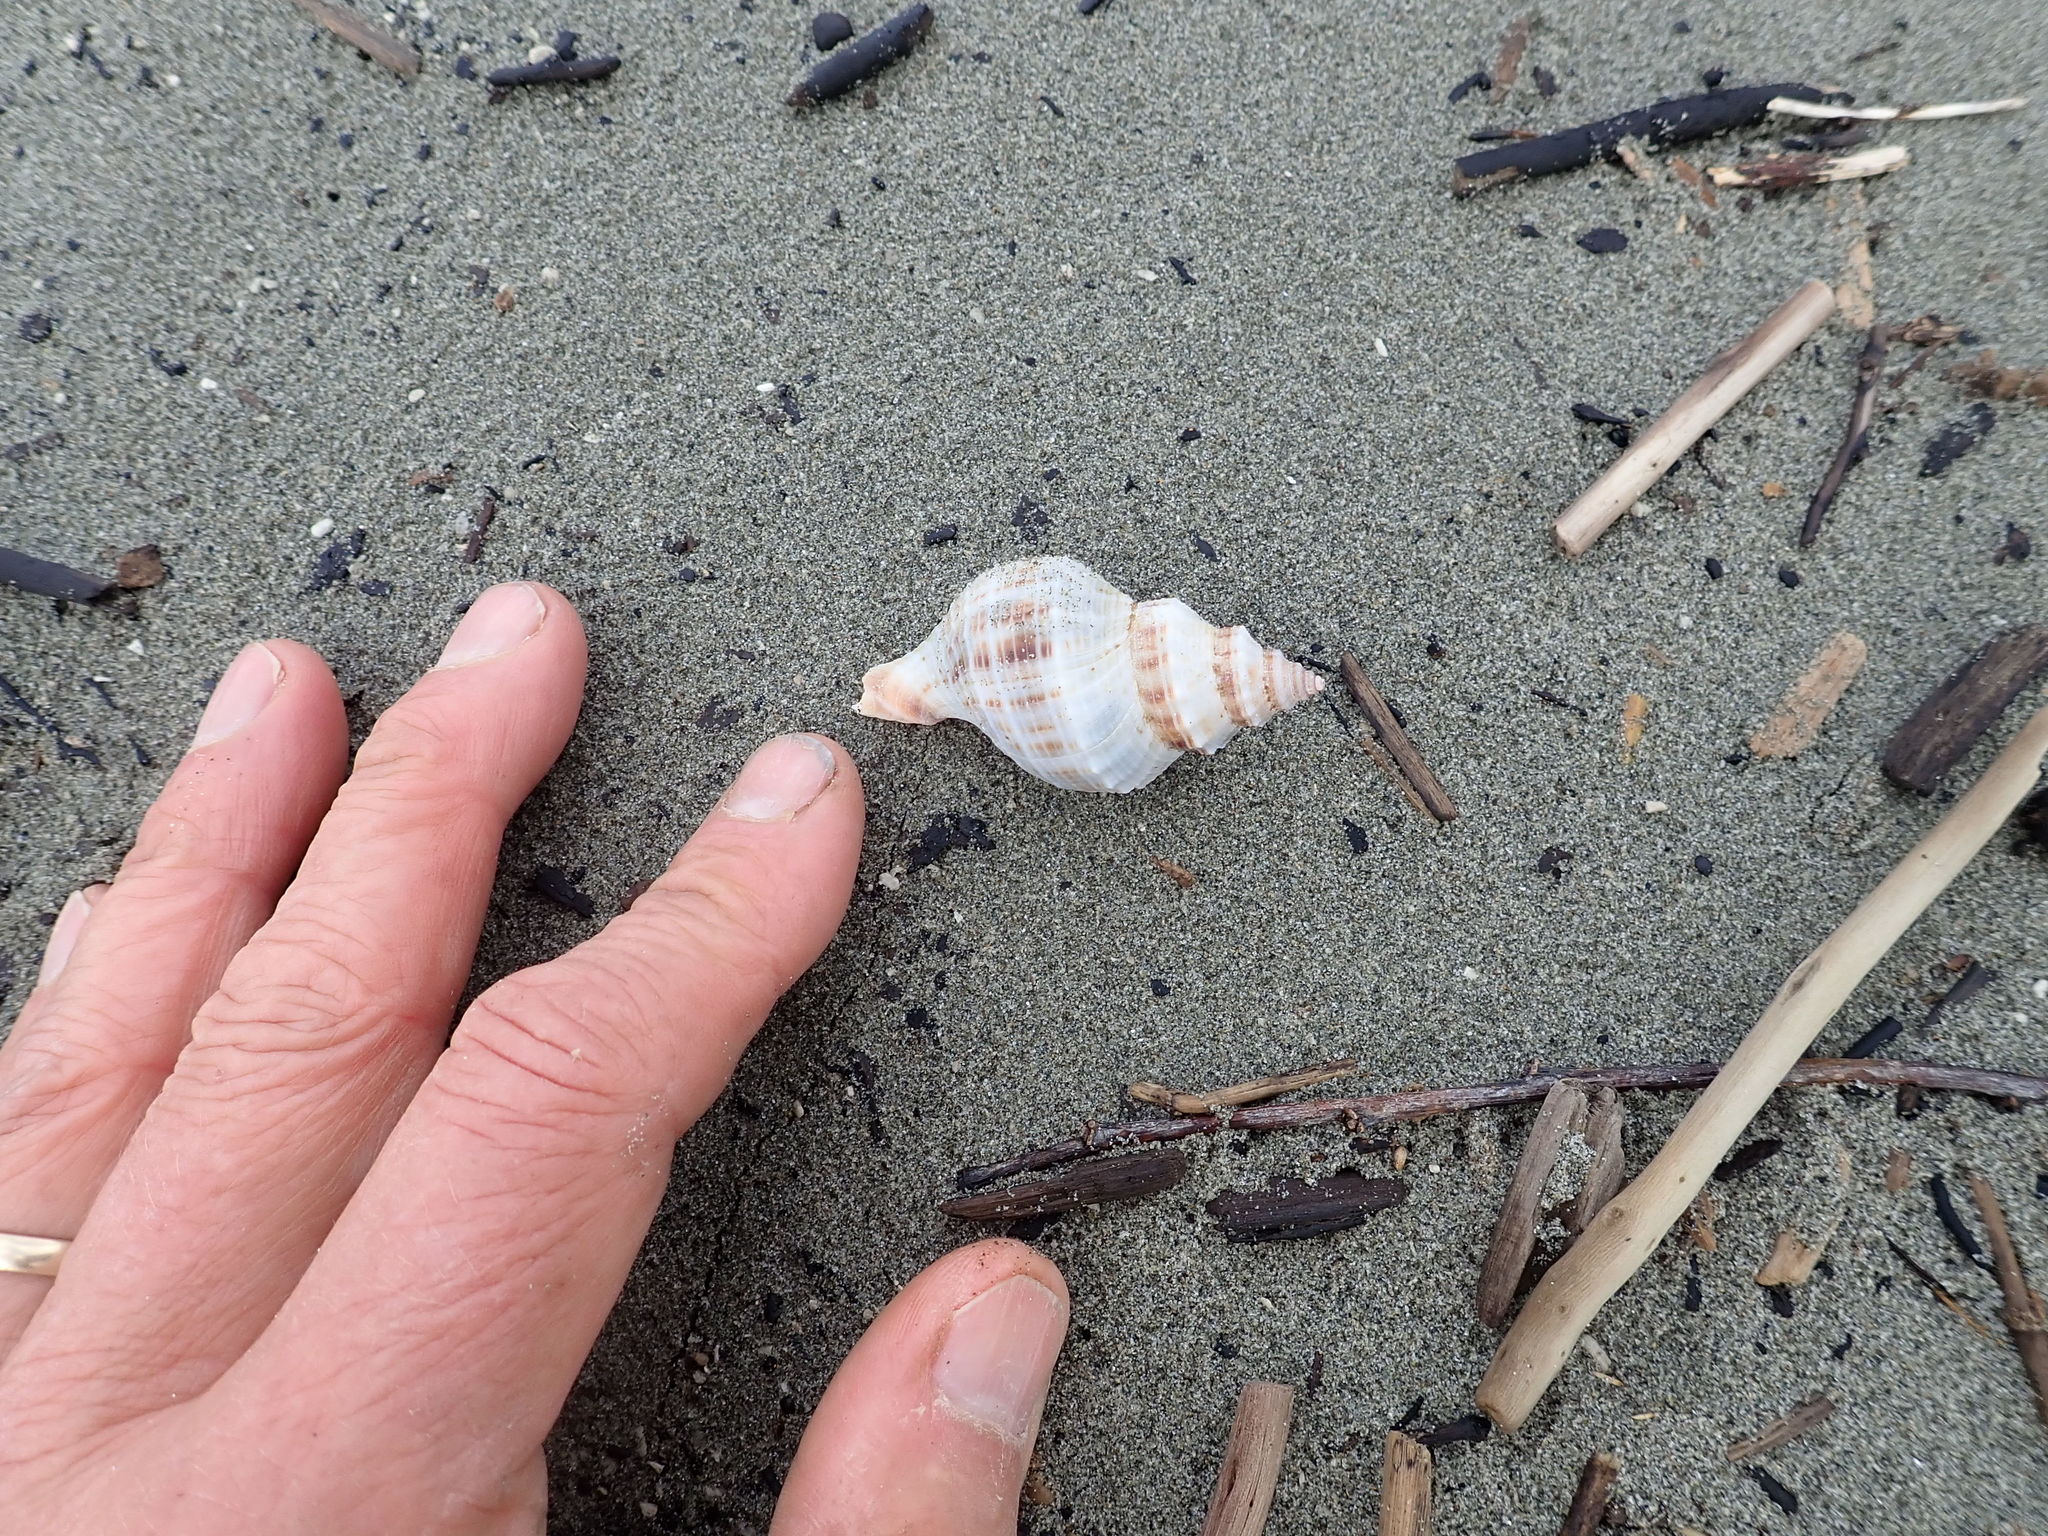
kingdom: Animalia
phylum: Mollusca
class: Gastropoda
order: Neogastropoda
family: Prosiphonidae
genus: Austrofusus
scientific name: Austrofusus glans
